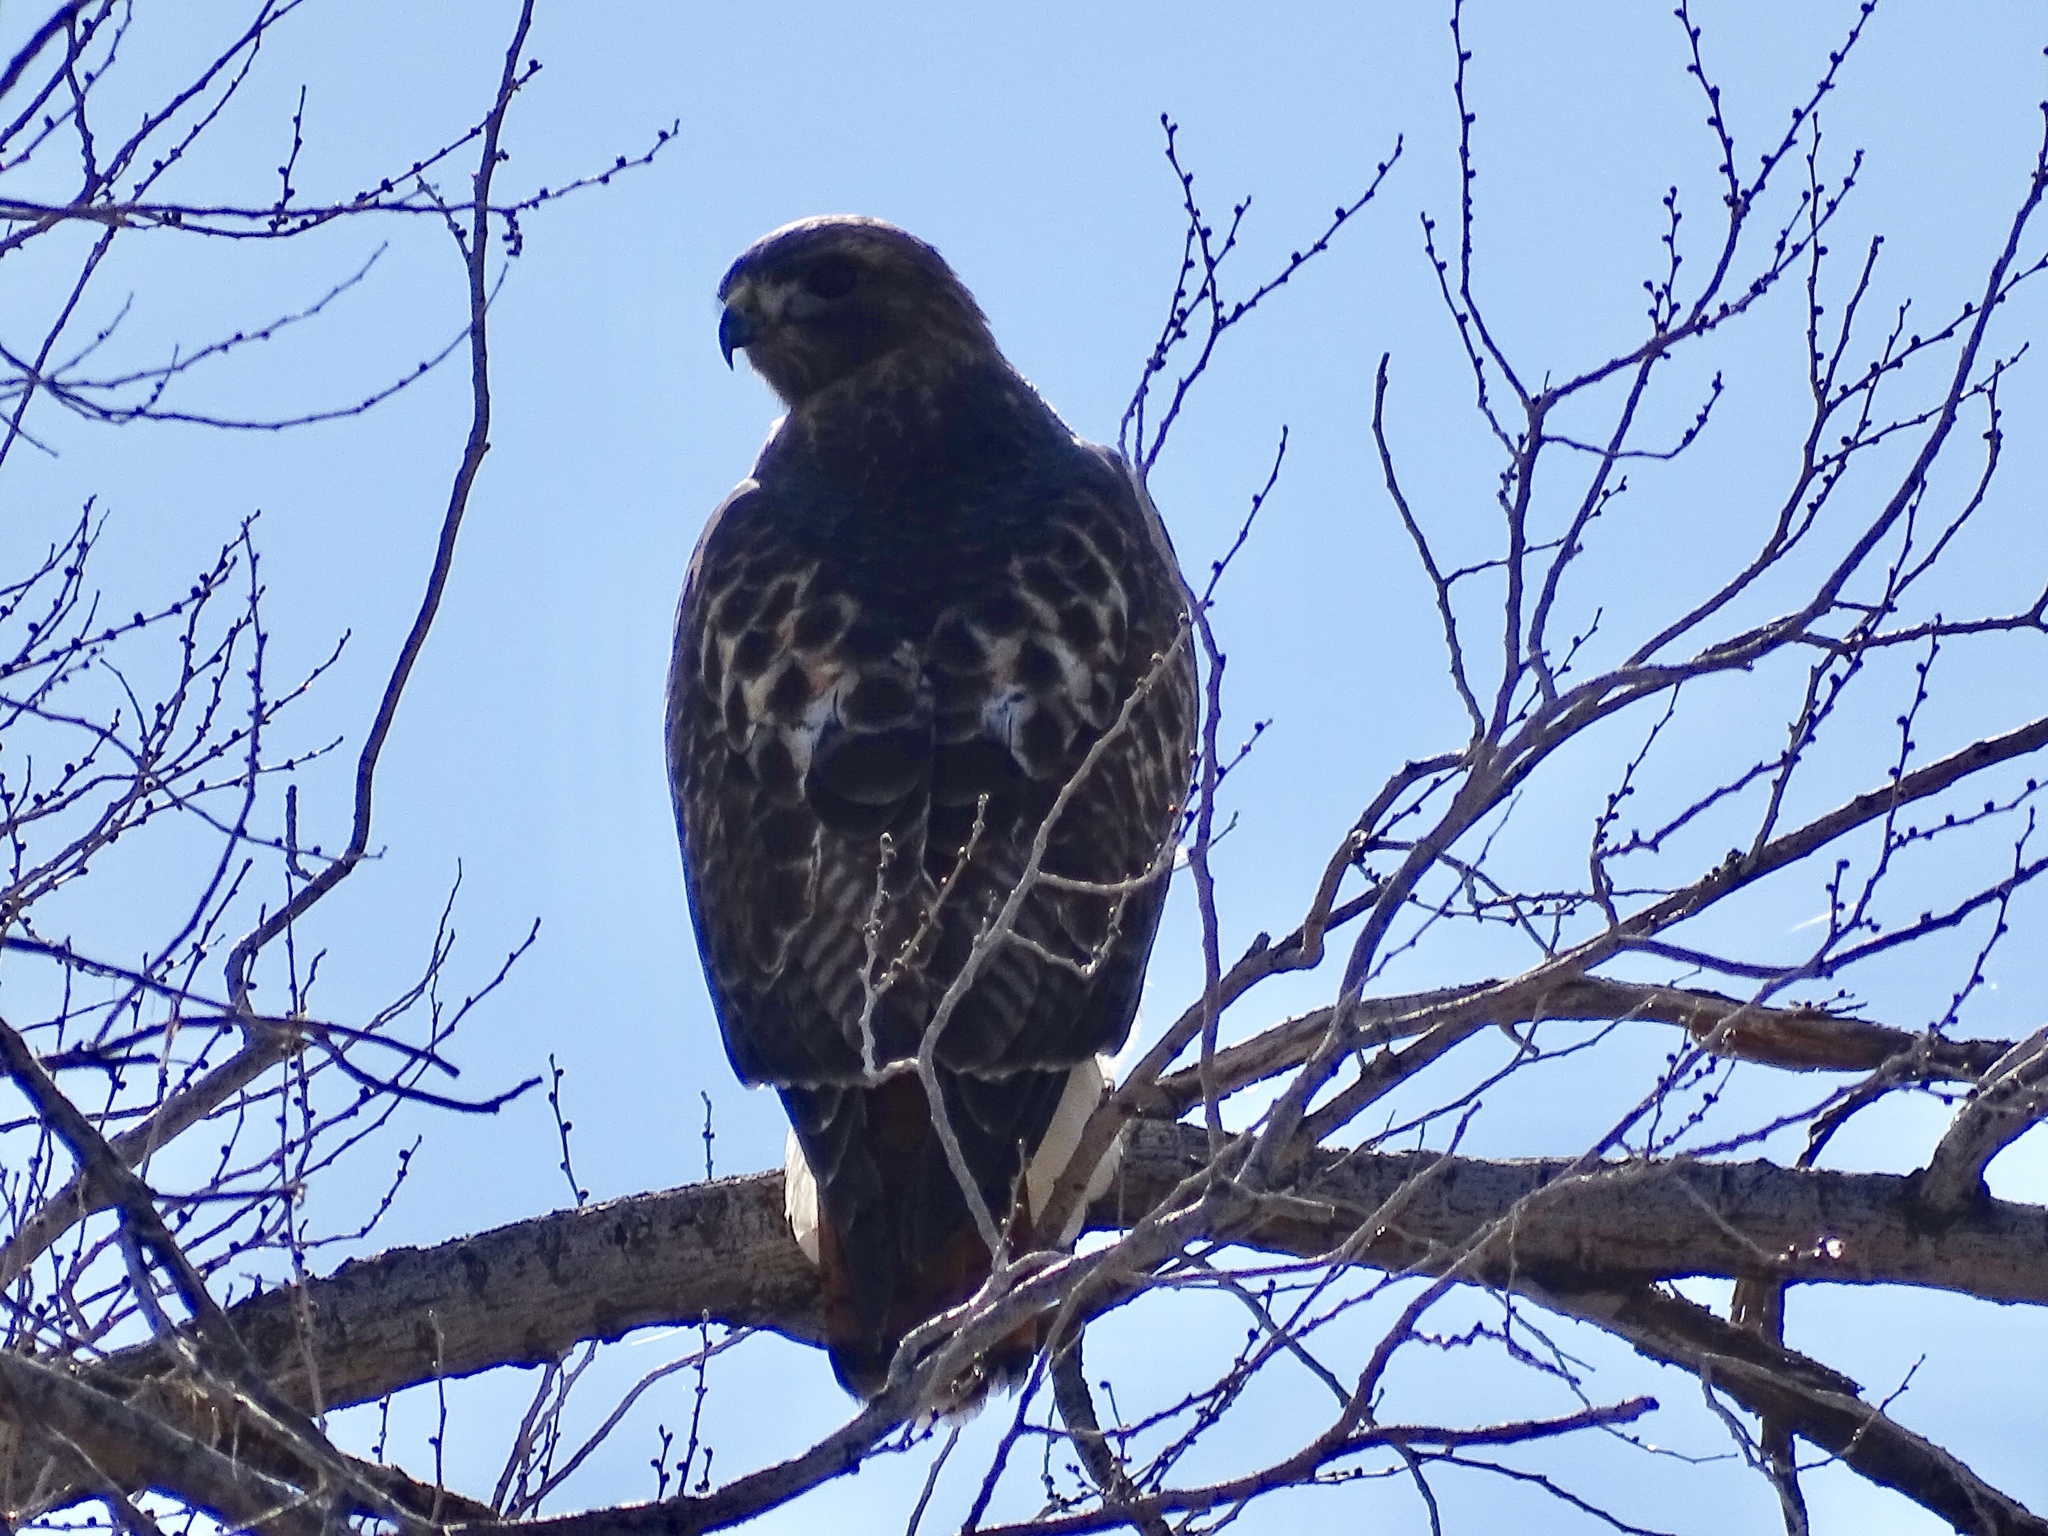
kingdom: Animalia
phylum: Chordata
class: Aves
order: Accipitriformes
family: Accipitridae
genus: Buteo
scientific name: Buteo jamaicensis
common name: Red-tailed hawk
